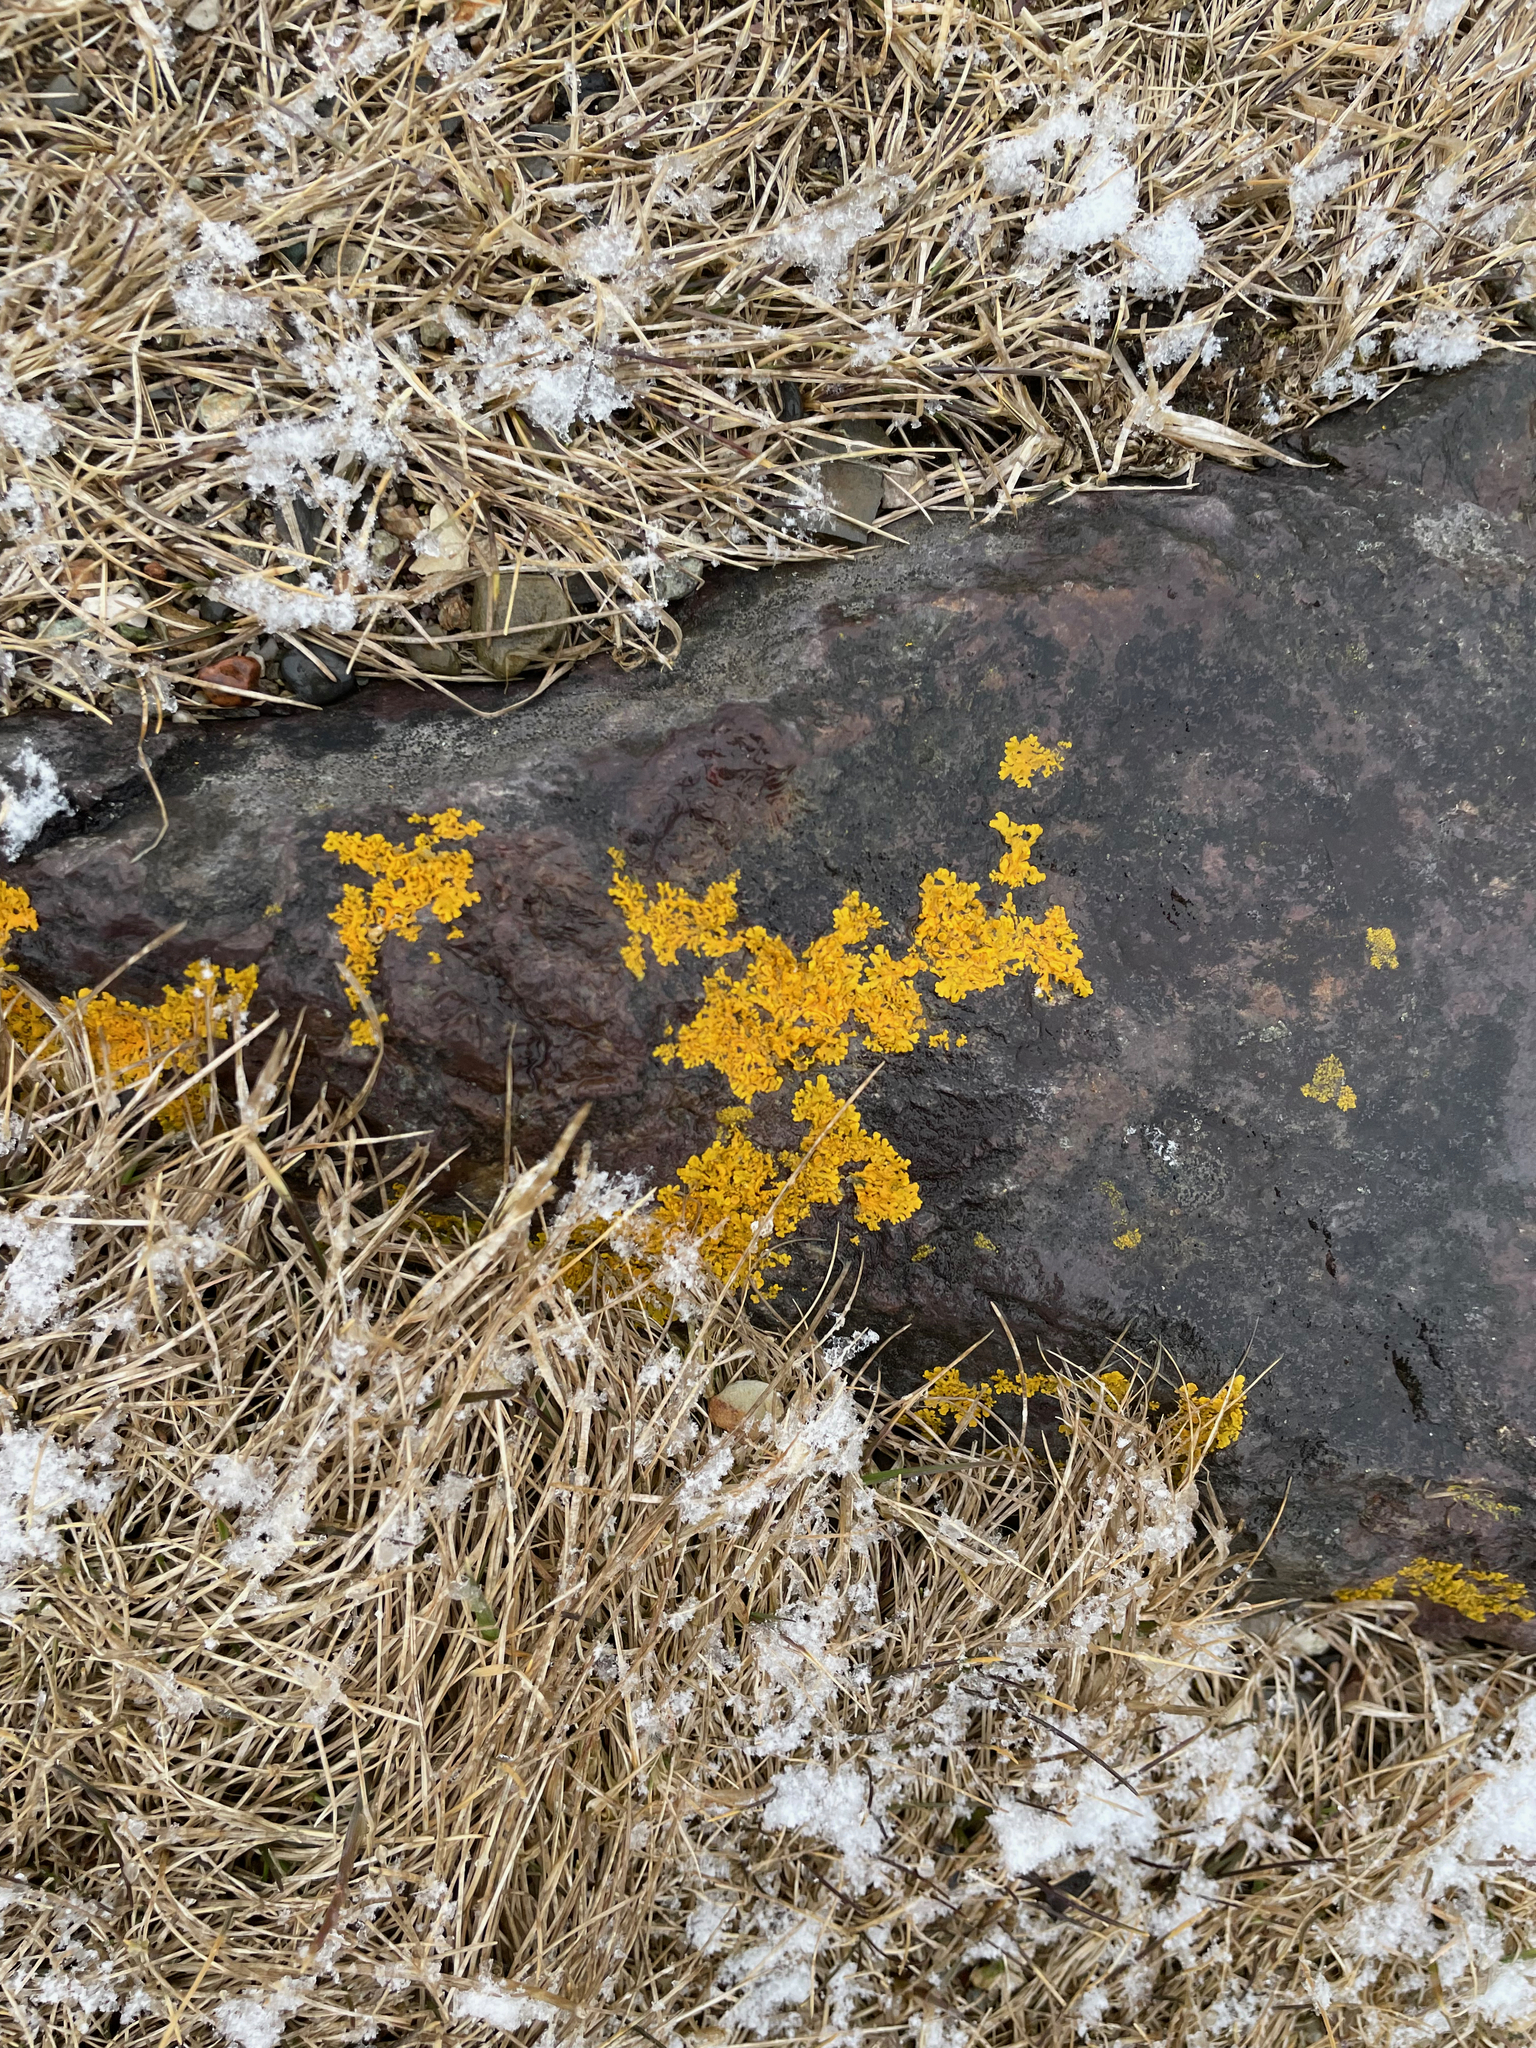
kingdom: Fungi
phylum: Ascomycota
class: Lecanoromycetes
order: Teloschistales
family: Teloschistaceae
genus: Xanthoria
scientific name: Xanthoria parietina
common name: Common orange lichen
